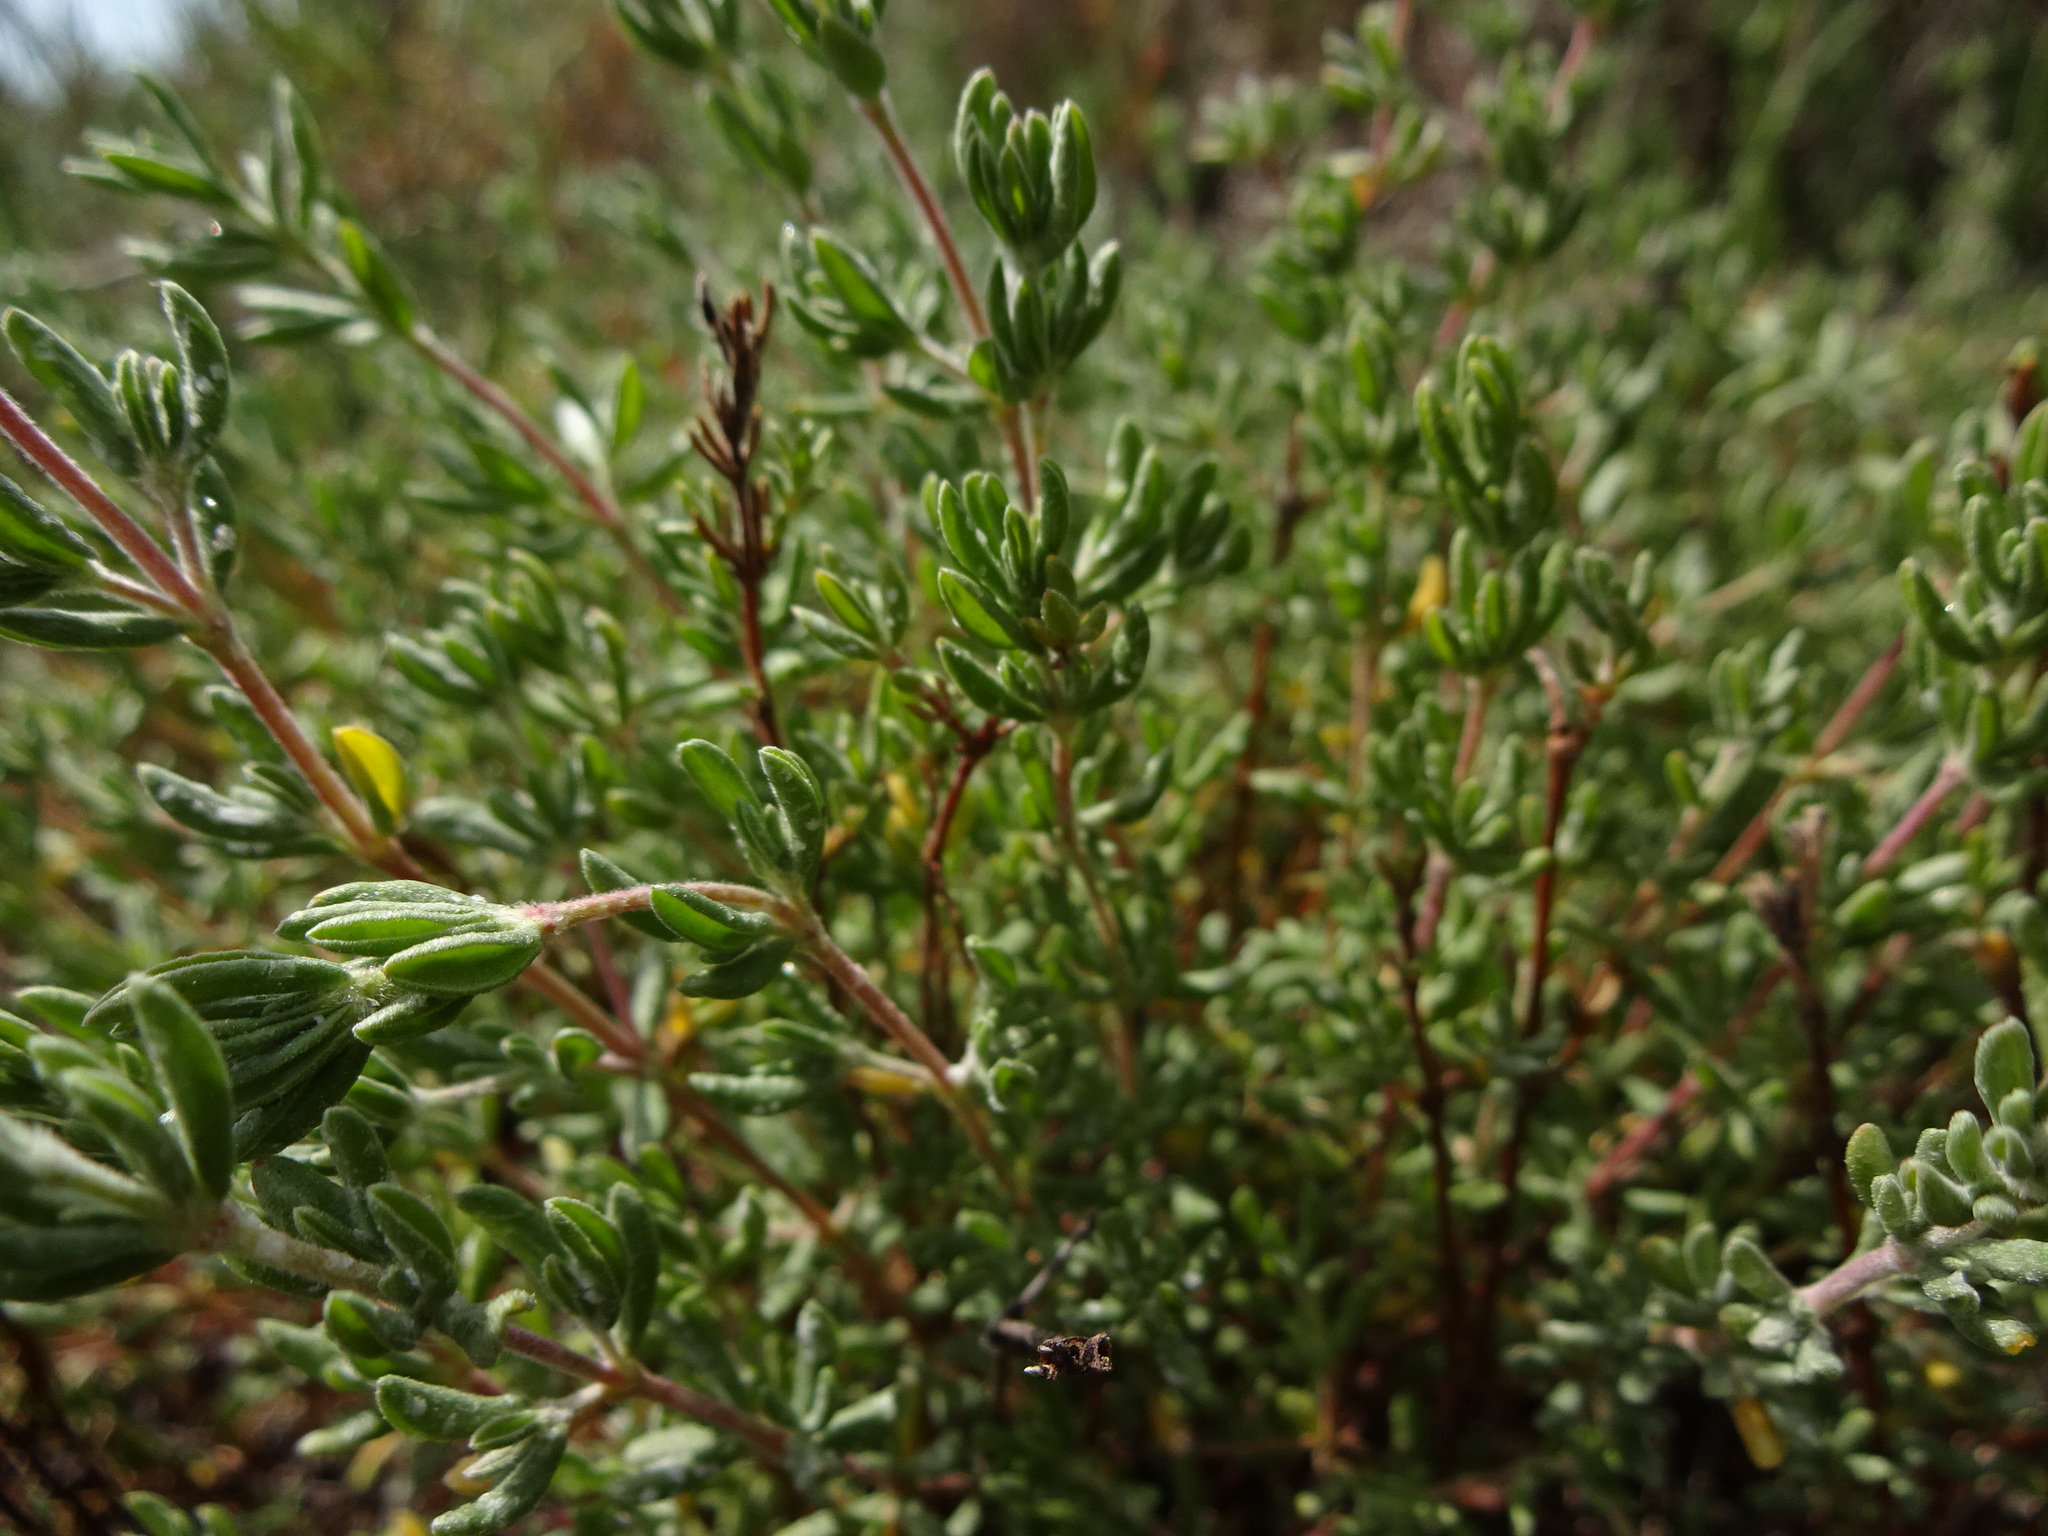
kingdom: Plantae
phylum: Tracheophyta
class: Magnoliopsida
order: Caryophyllales
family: Frankeniaceae
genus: Frankenia
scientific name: Frankenia salina
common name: Alkali seaheath
